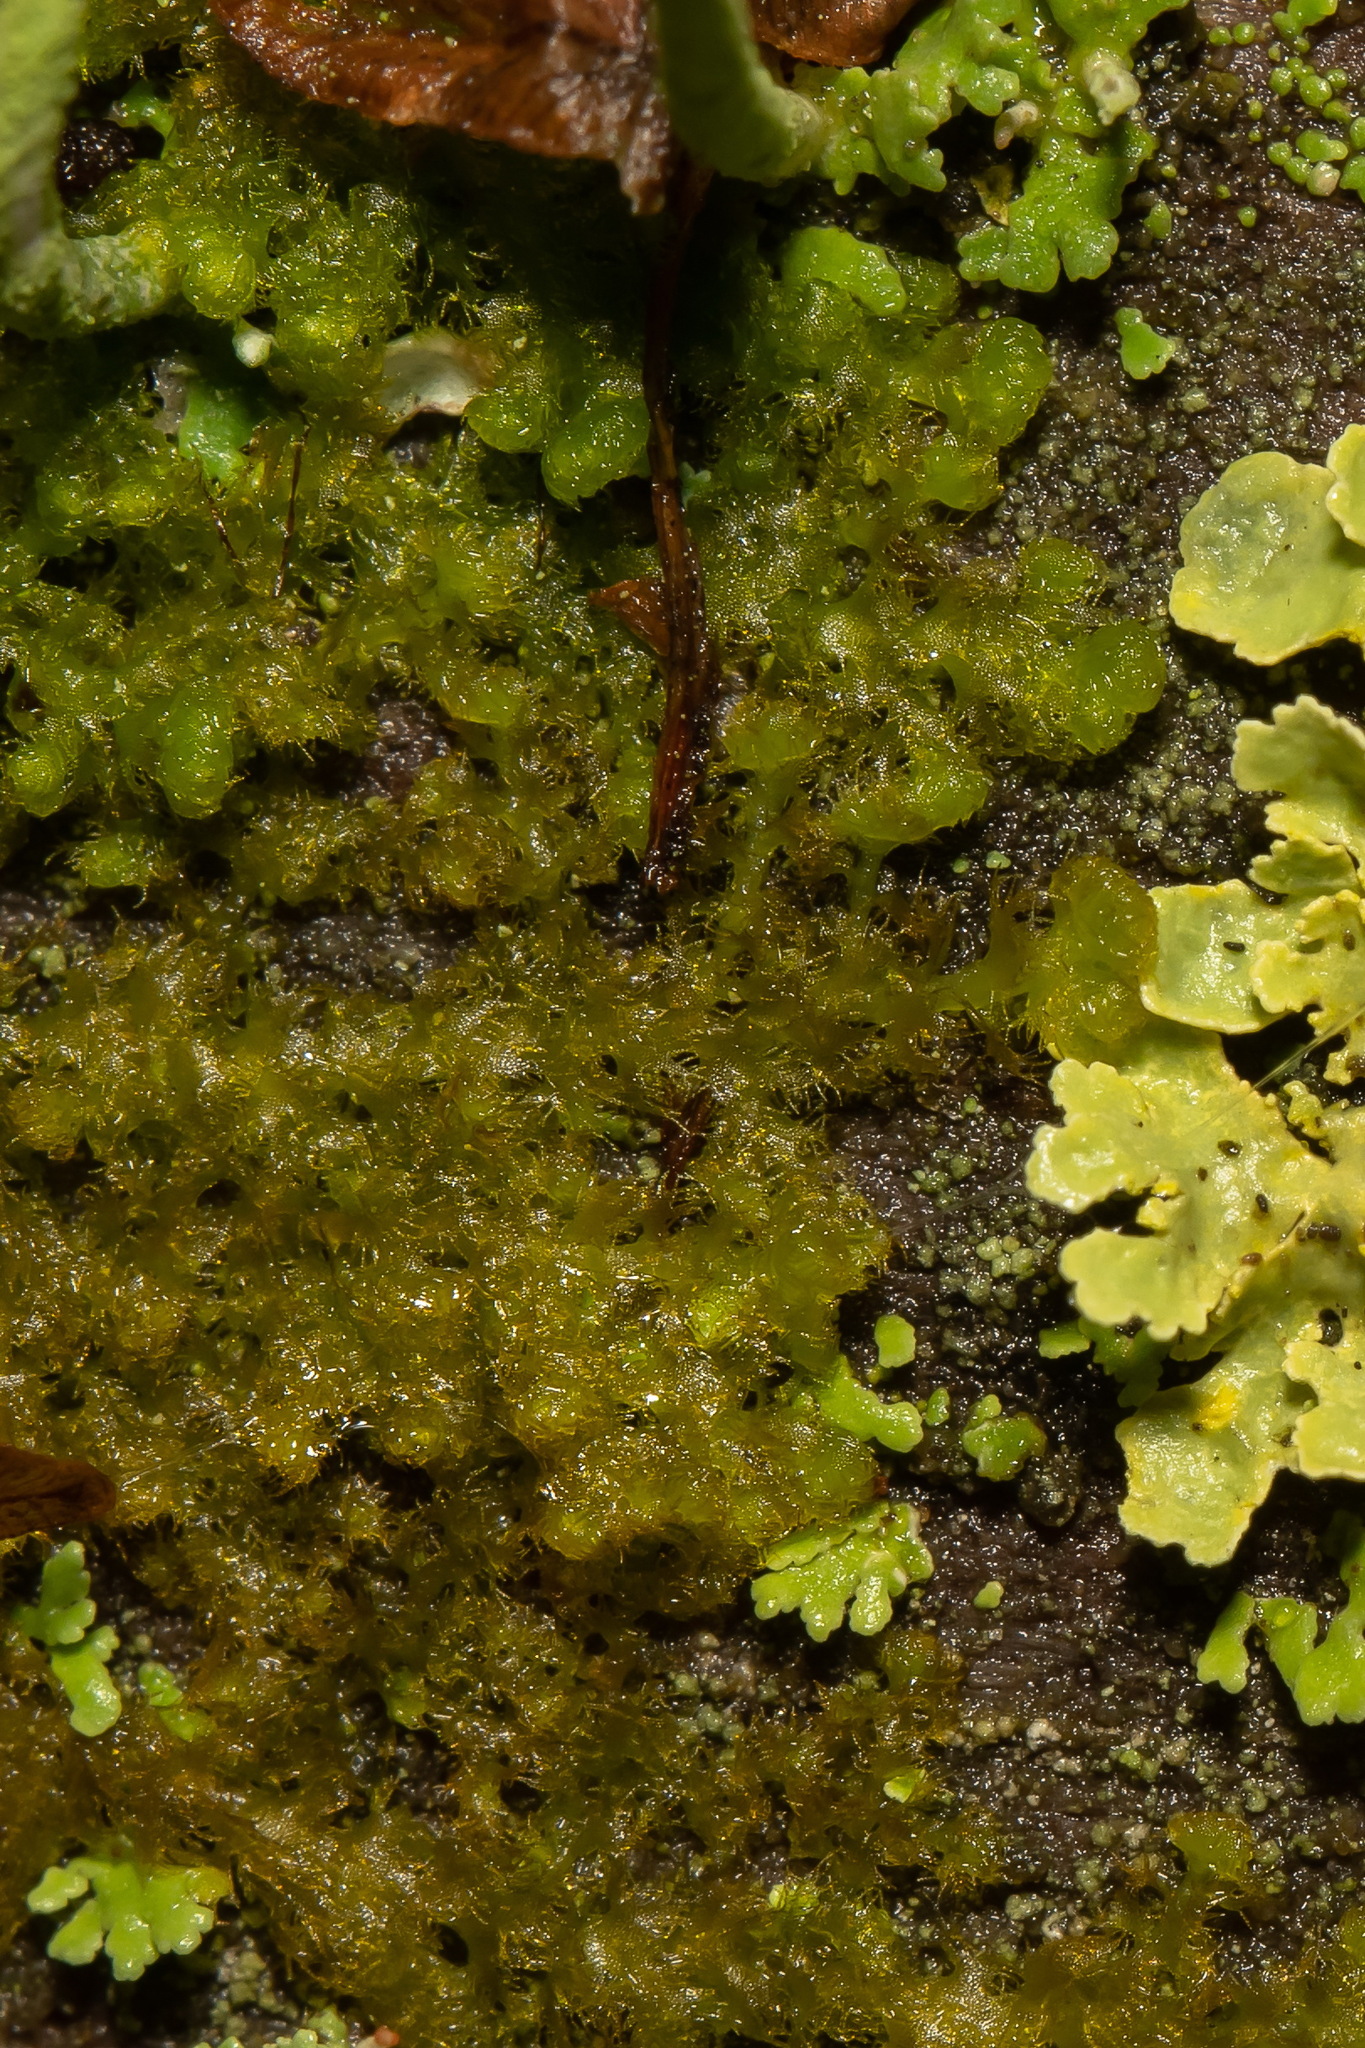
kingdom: Plantae
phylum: Marchantiophyta
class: Jungermanniopsida
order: Ptilidiales
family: Ptilidiaceae
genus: Ptilidium
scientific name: Ptilidium pulcherrimum
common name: Tree fringewort
